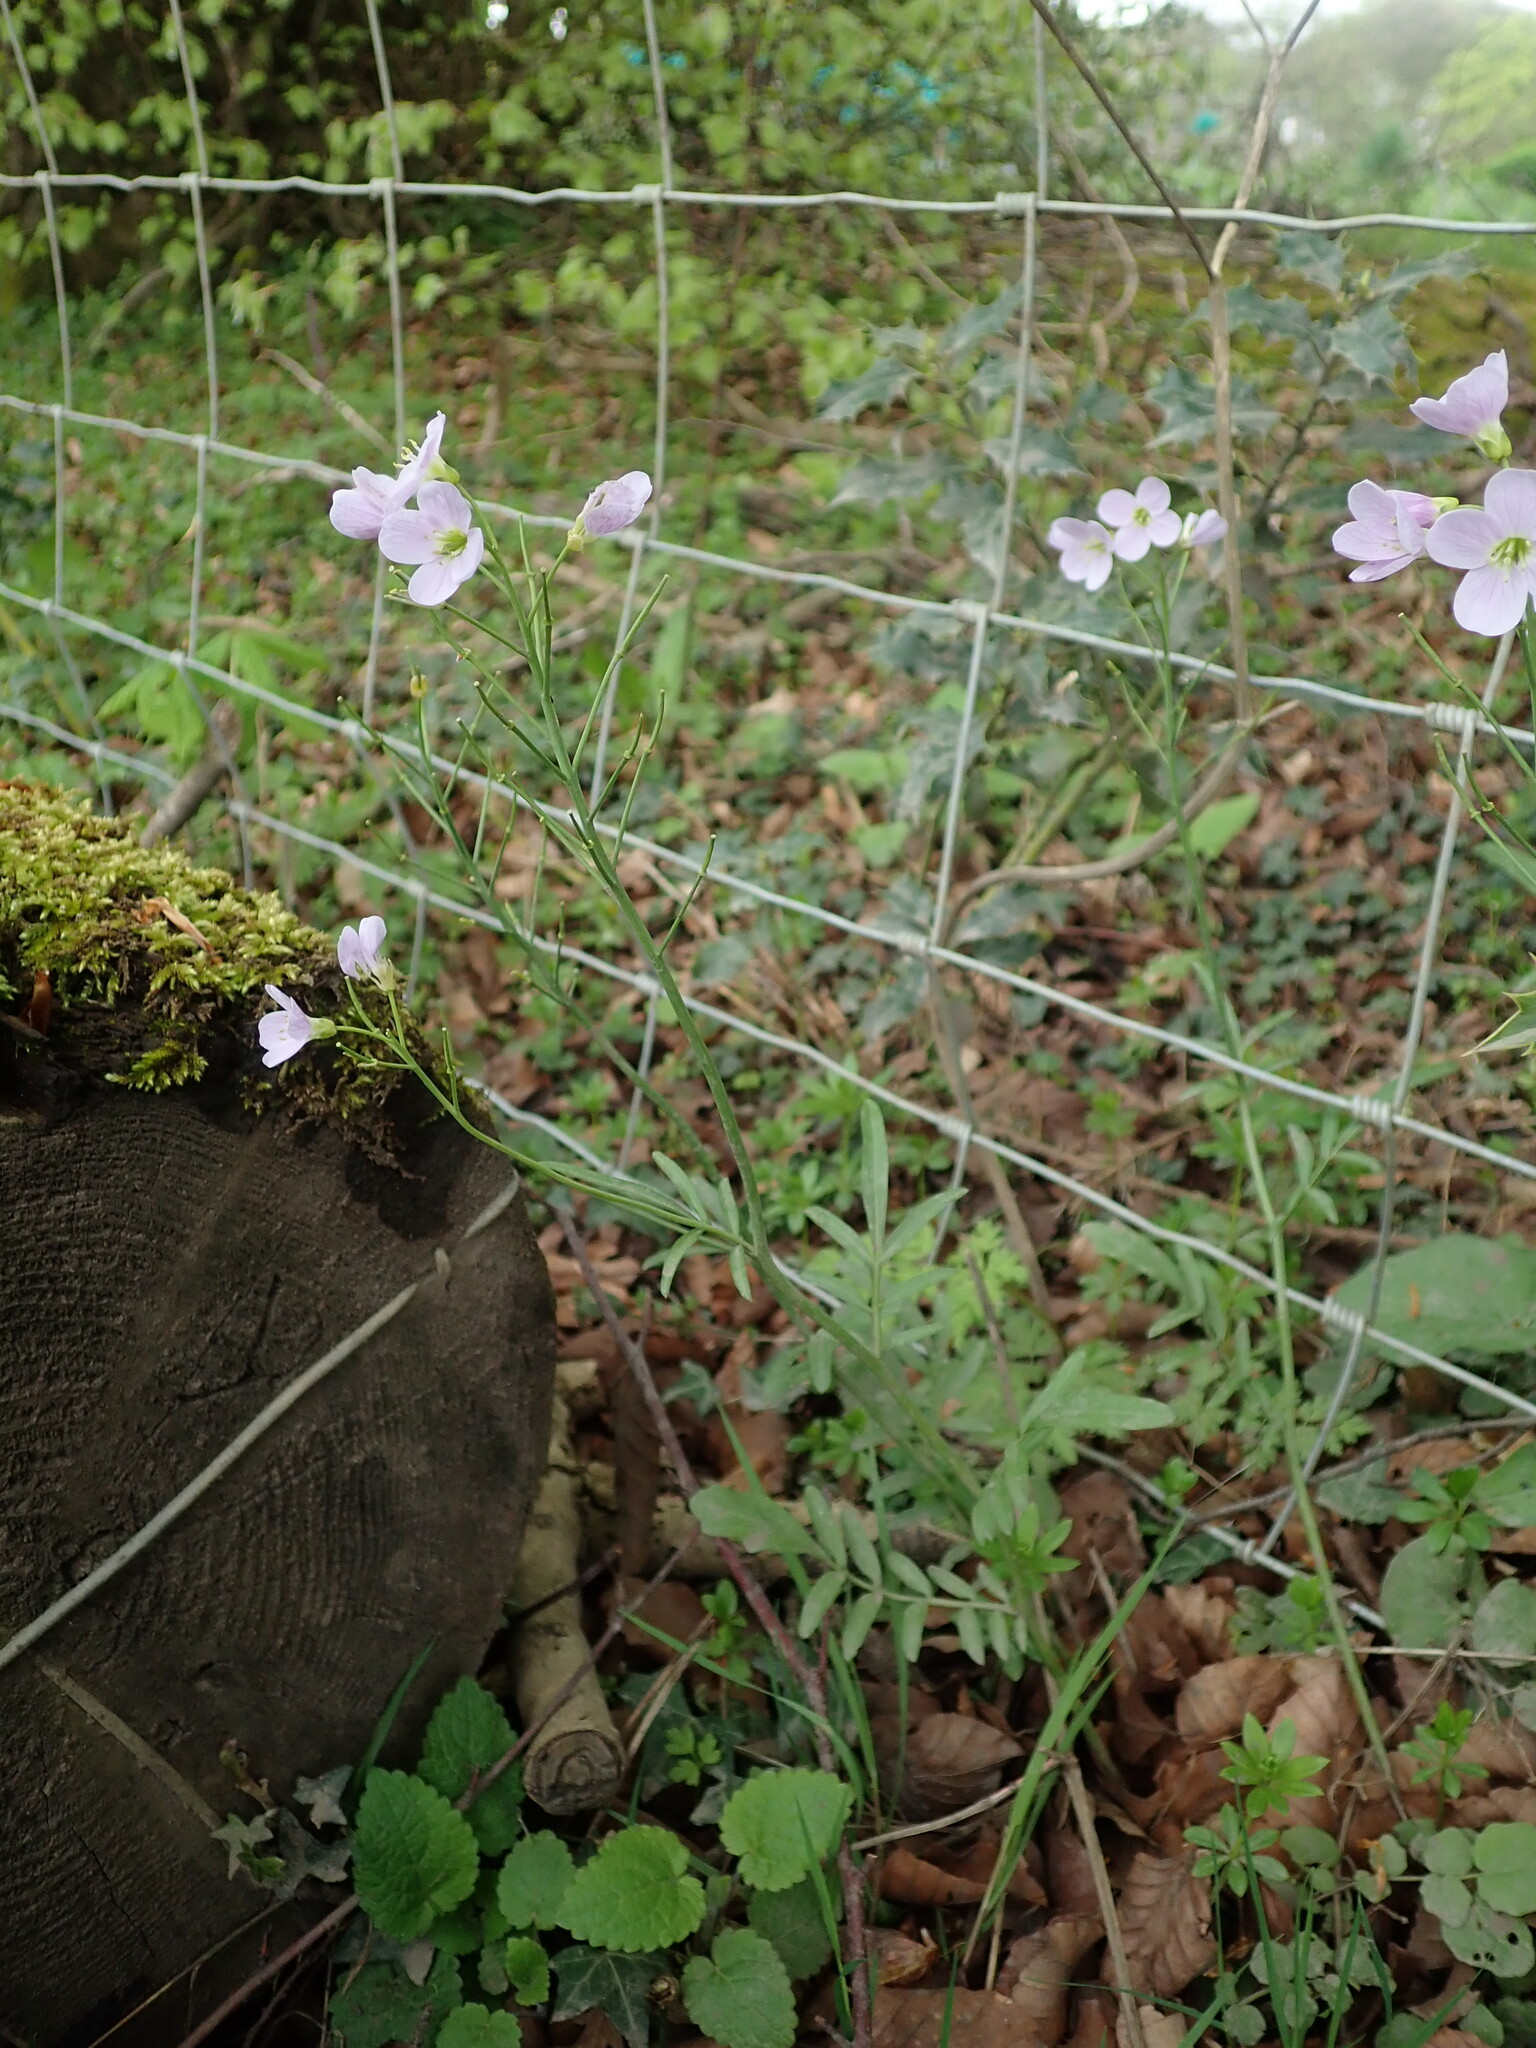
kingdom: Plantae
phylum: Tracheophyta
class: Magnoliopsida
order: Brassicales
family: Brassicaceae
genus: Cardamine
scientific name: Cardamine pratensis
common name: Cuckoo flower
